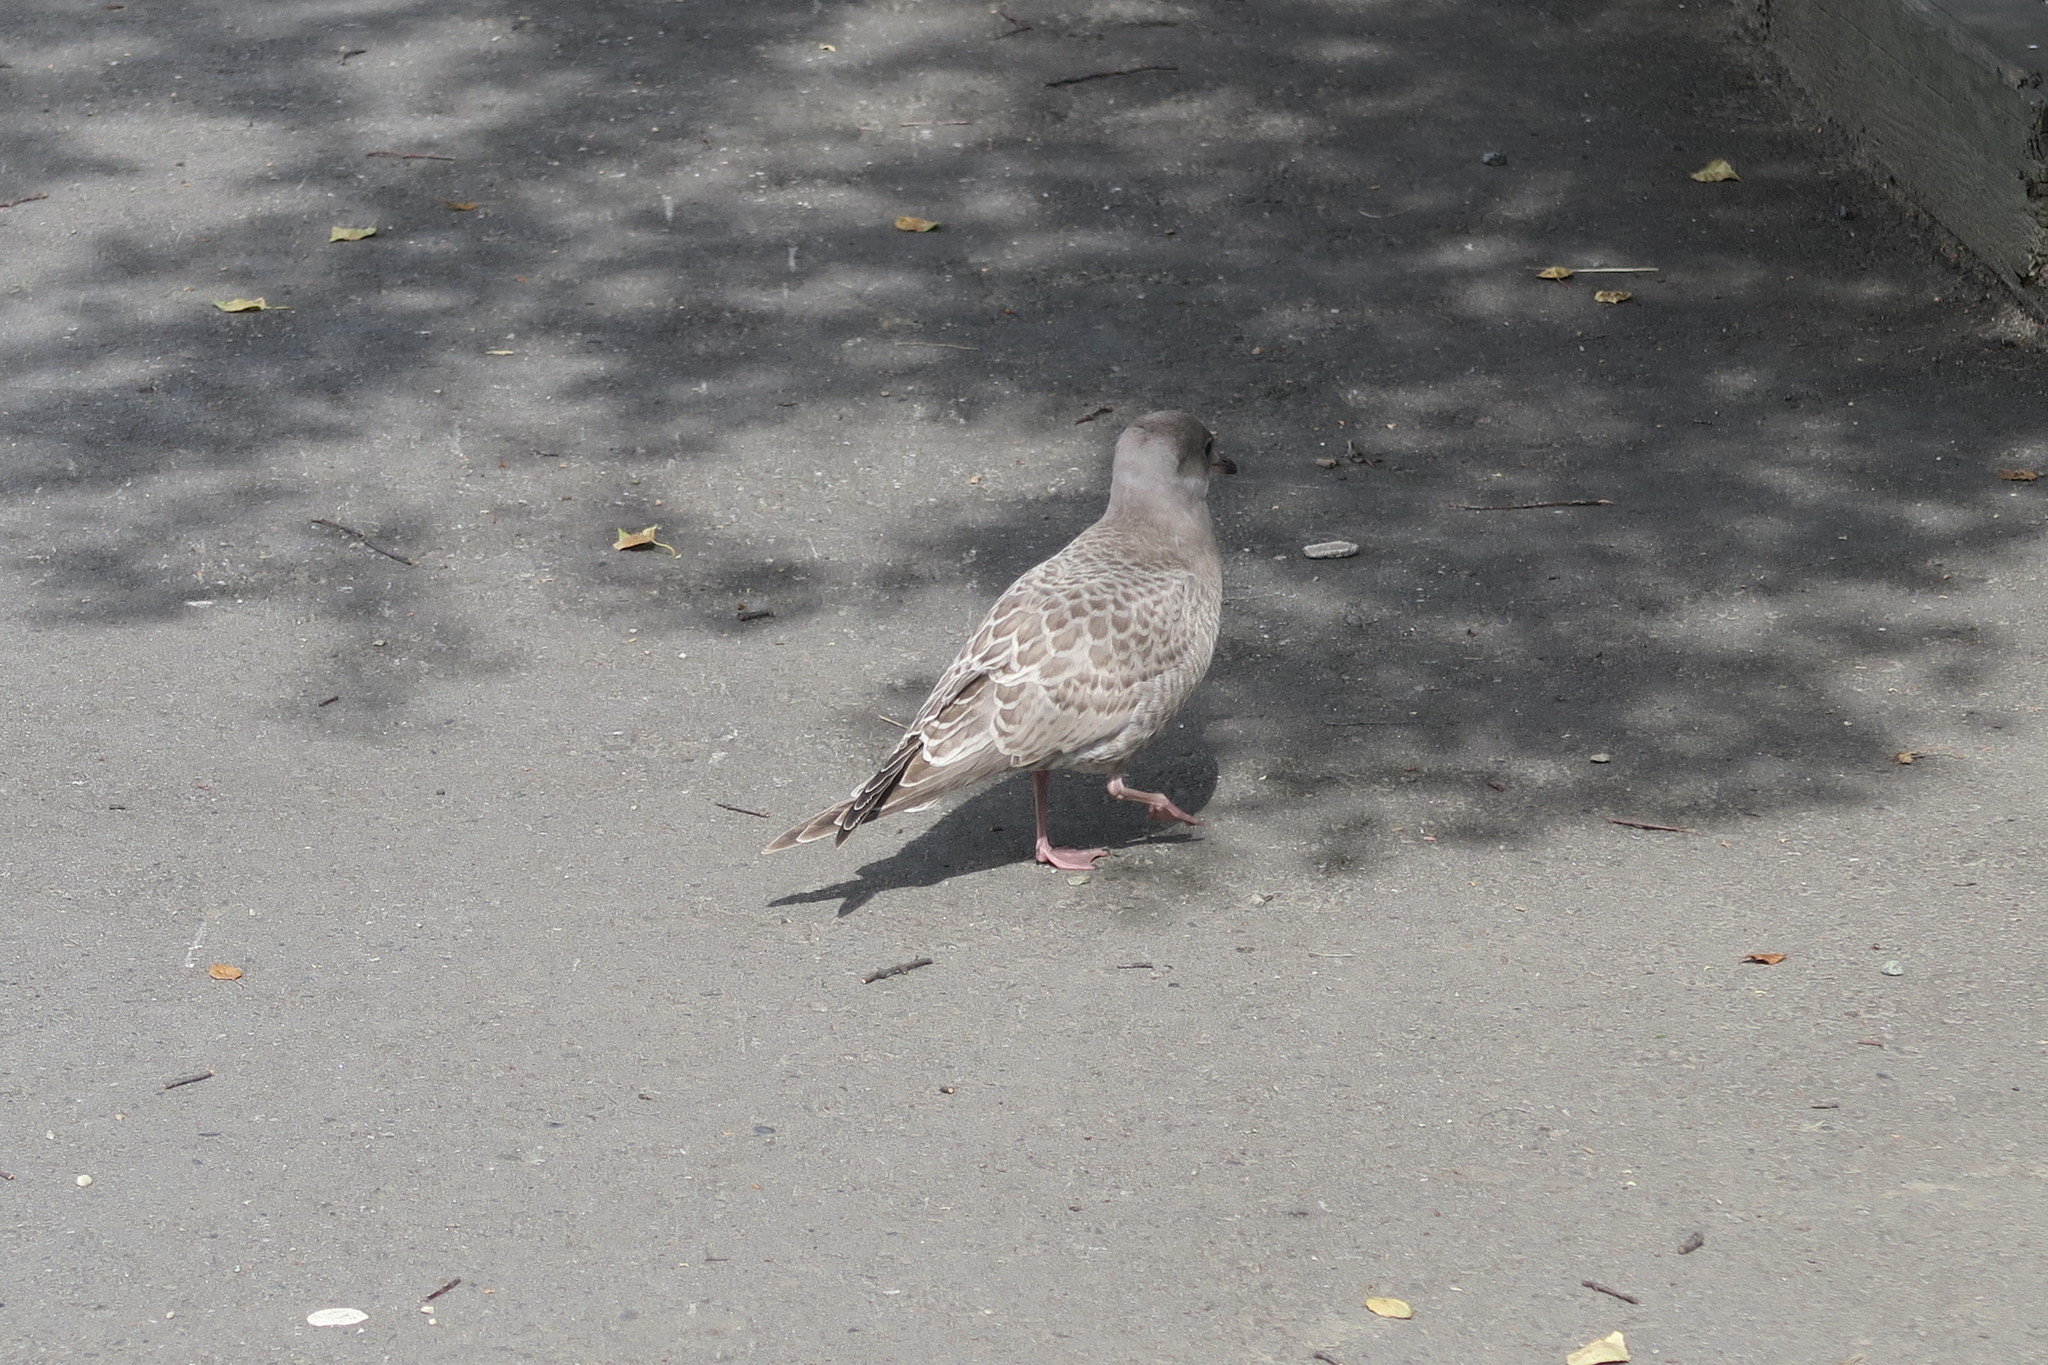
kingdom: Animalia
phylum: Chordata
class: Aves
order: Charadriiformes
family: Laridae
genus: Larus
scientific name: Larus brachyrhynchus
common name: Short-billed gull
